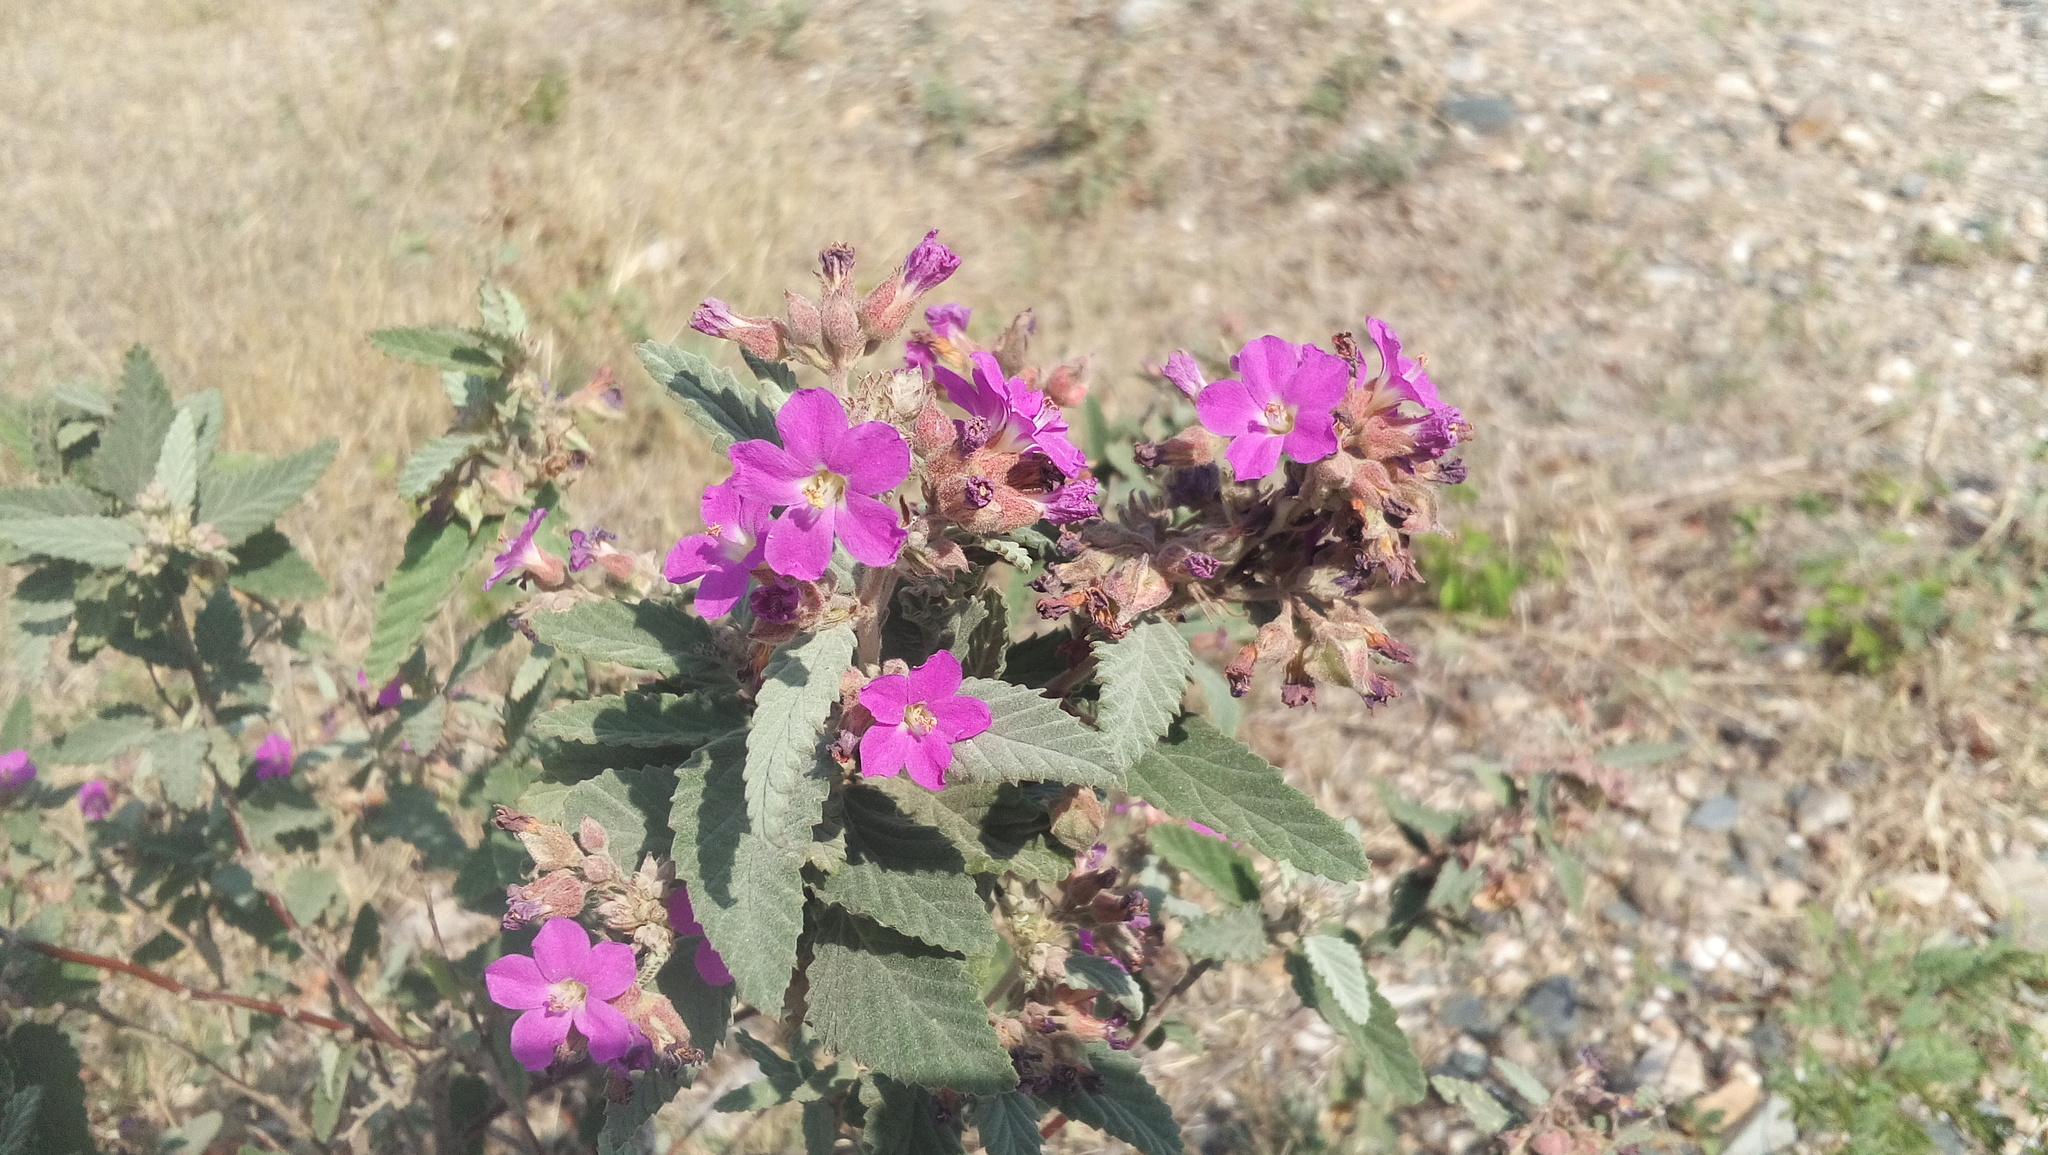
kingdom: Plantae
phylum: Tracheophyta
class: Magnoliopsida
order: Malvales
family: Malvaceae
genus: Melochia
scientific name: Melochia tomentosa
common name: Black torch
